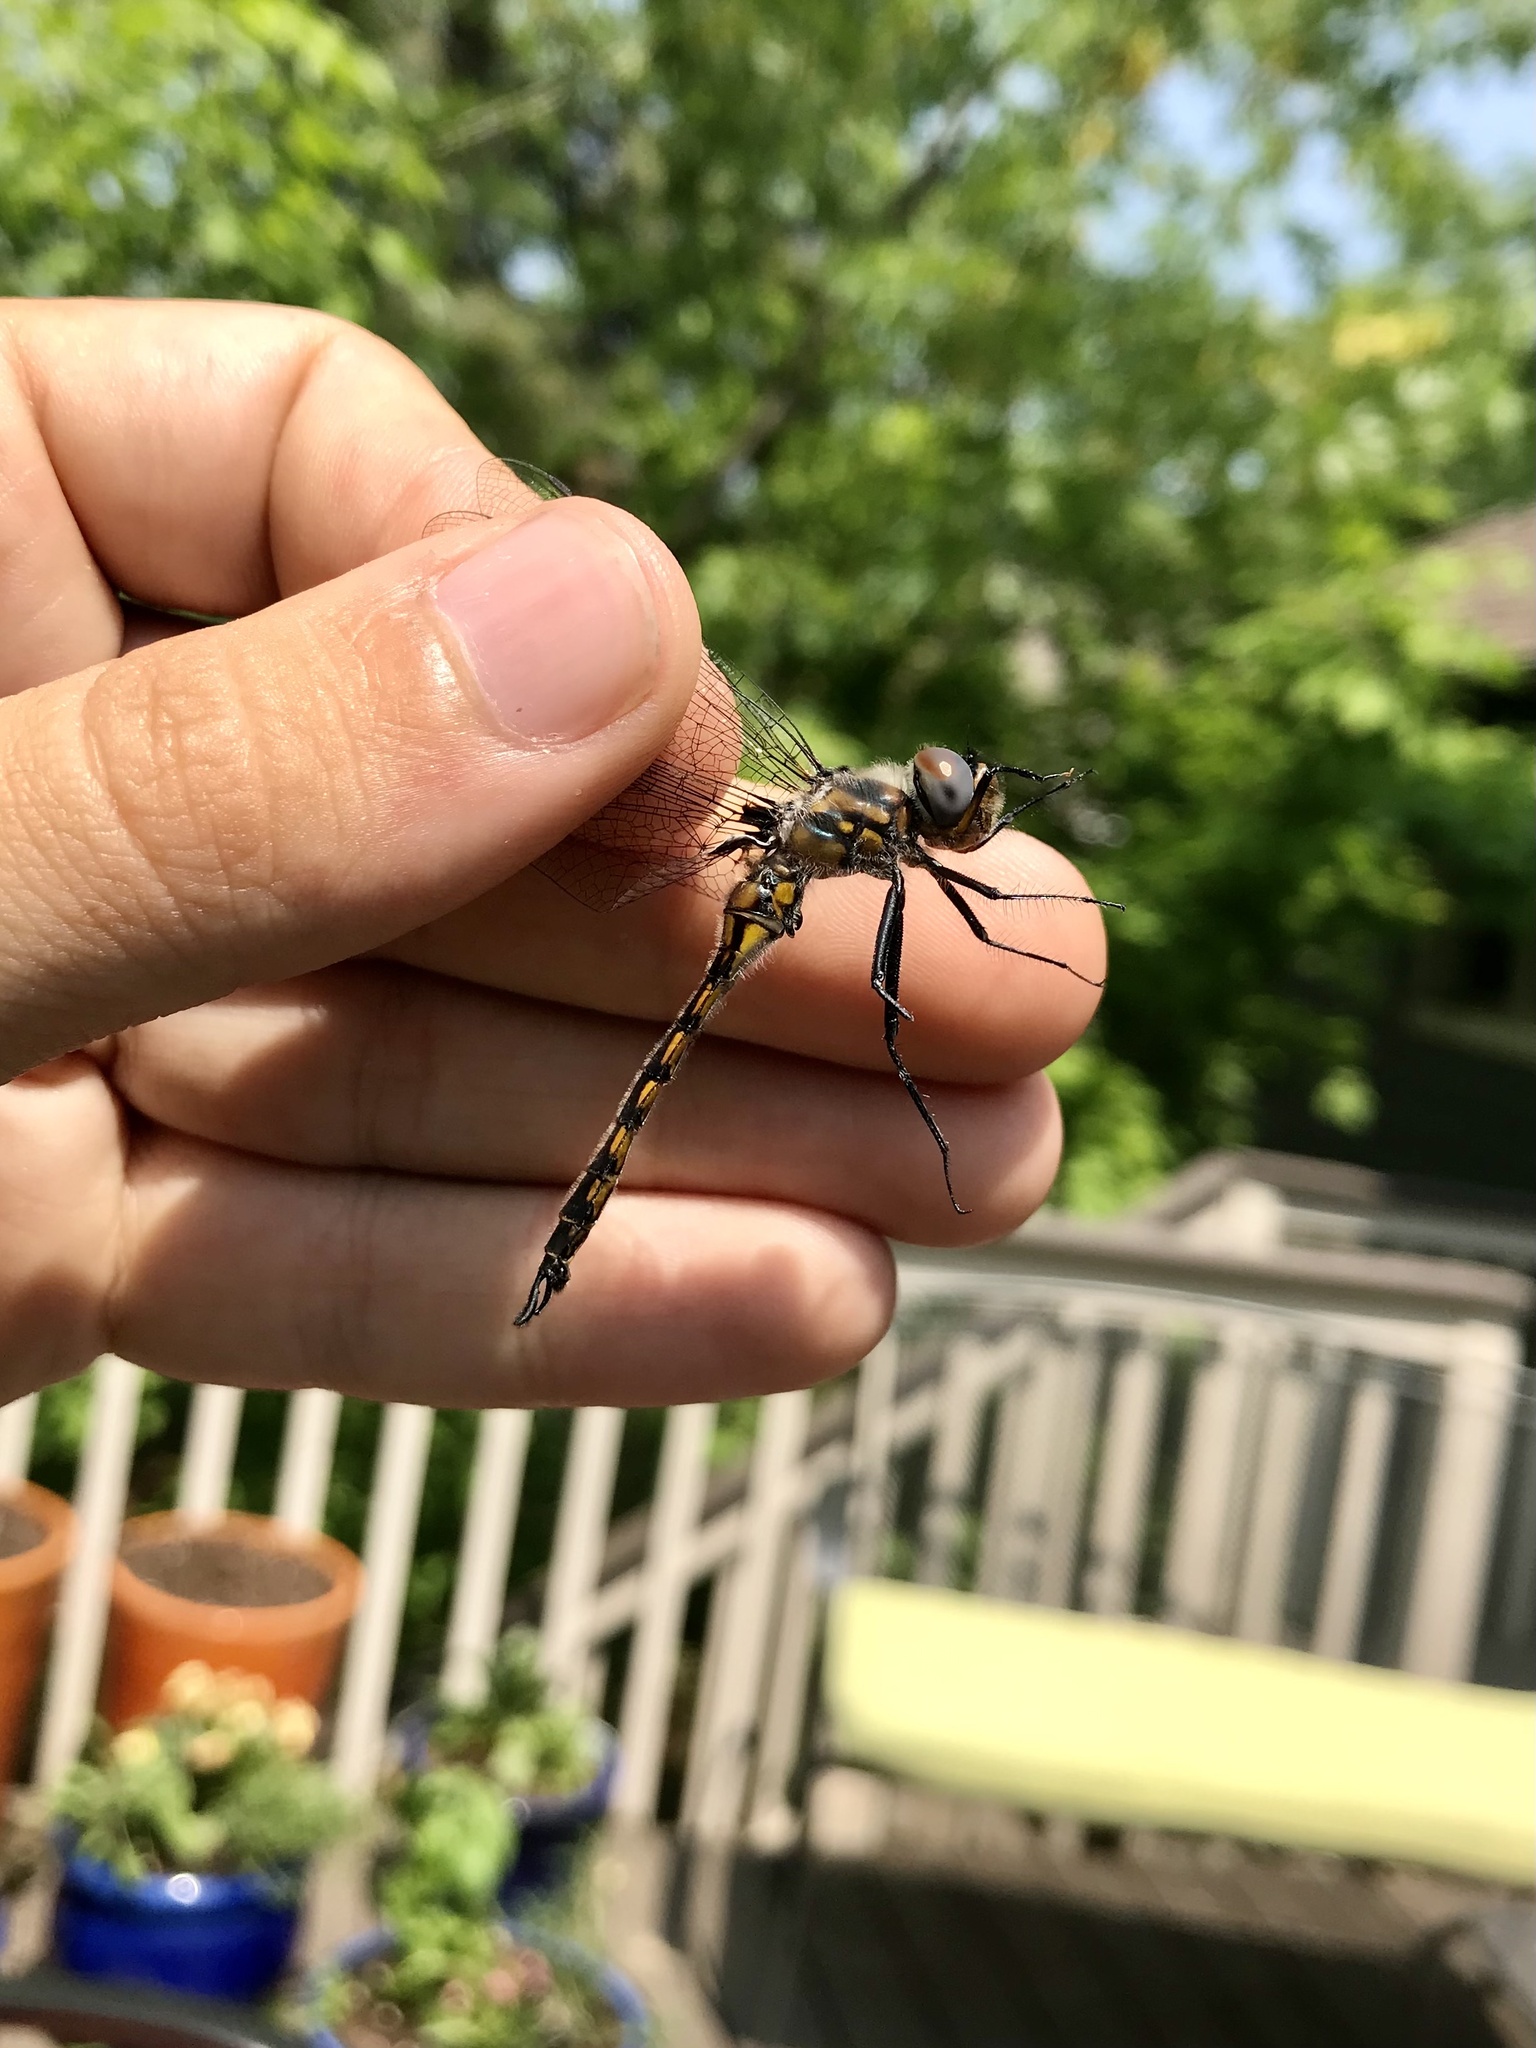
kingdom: Animalia
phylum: Arthropoda
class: Insecta
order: Odonata
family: Corduliidae
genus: Epitheca
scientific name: Epitheca spinigera
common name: Spiny baskettail
